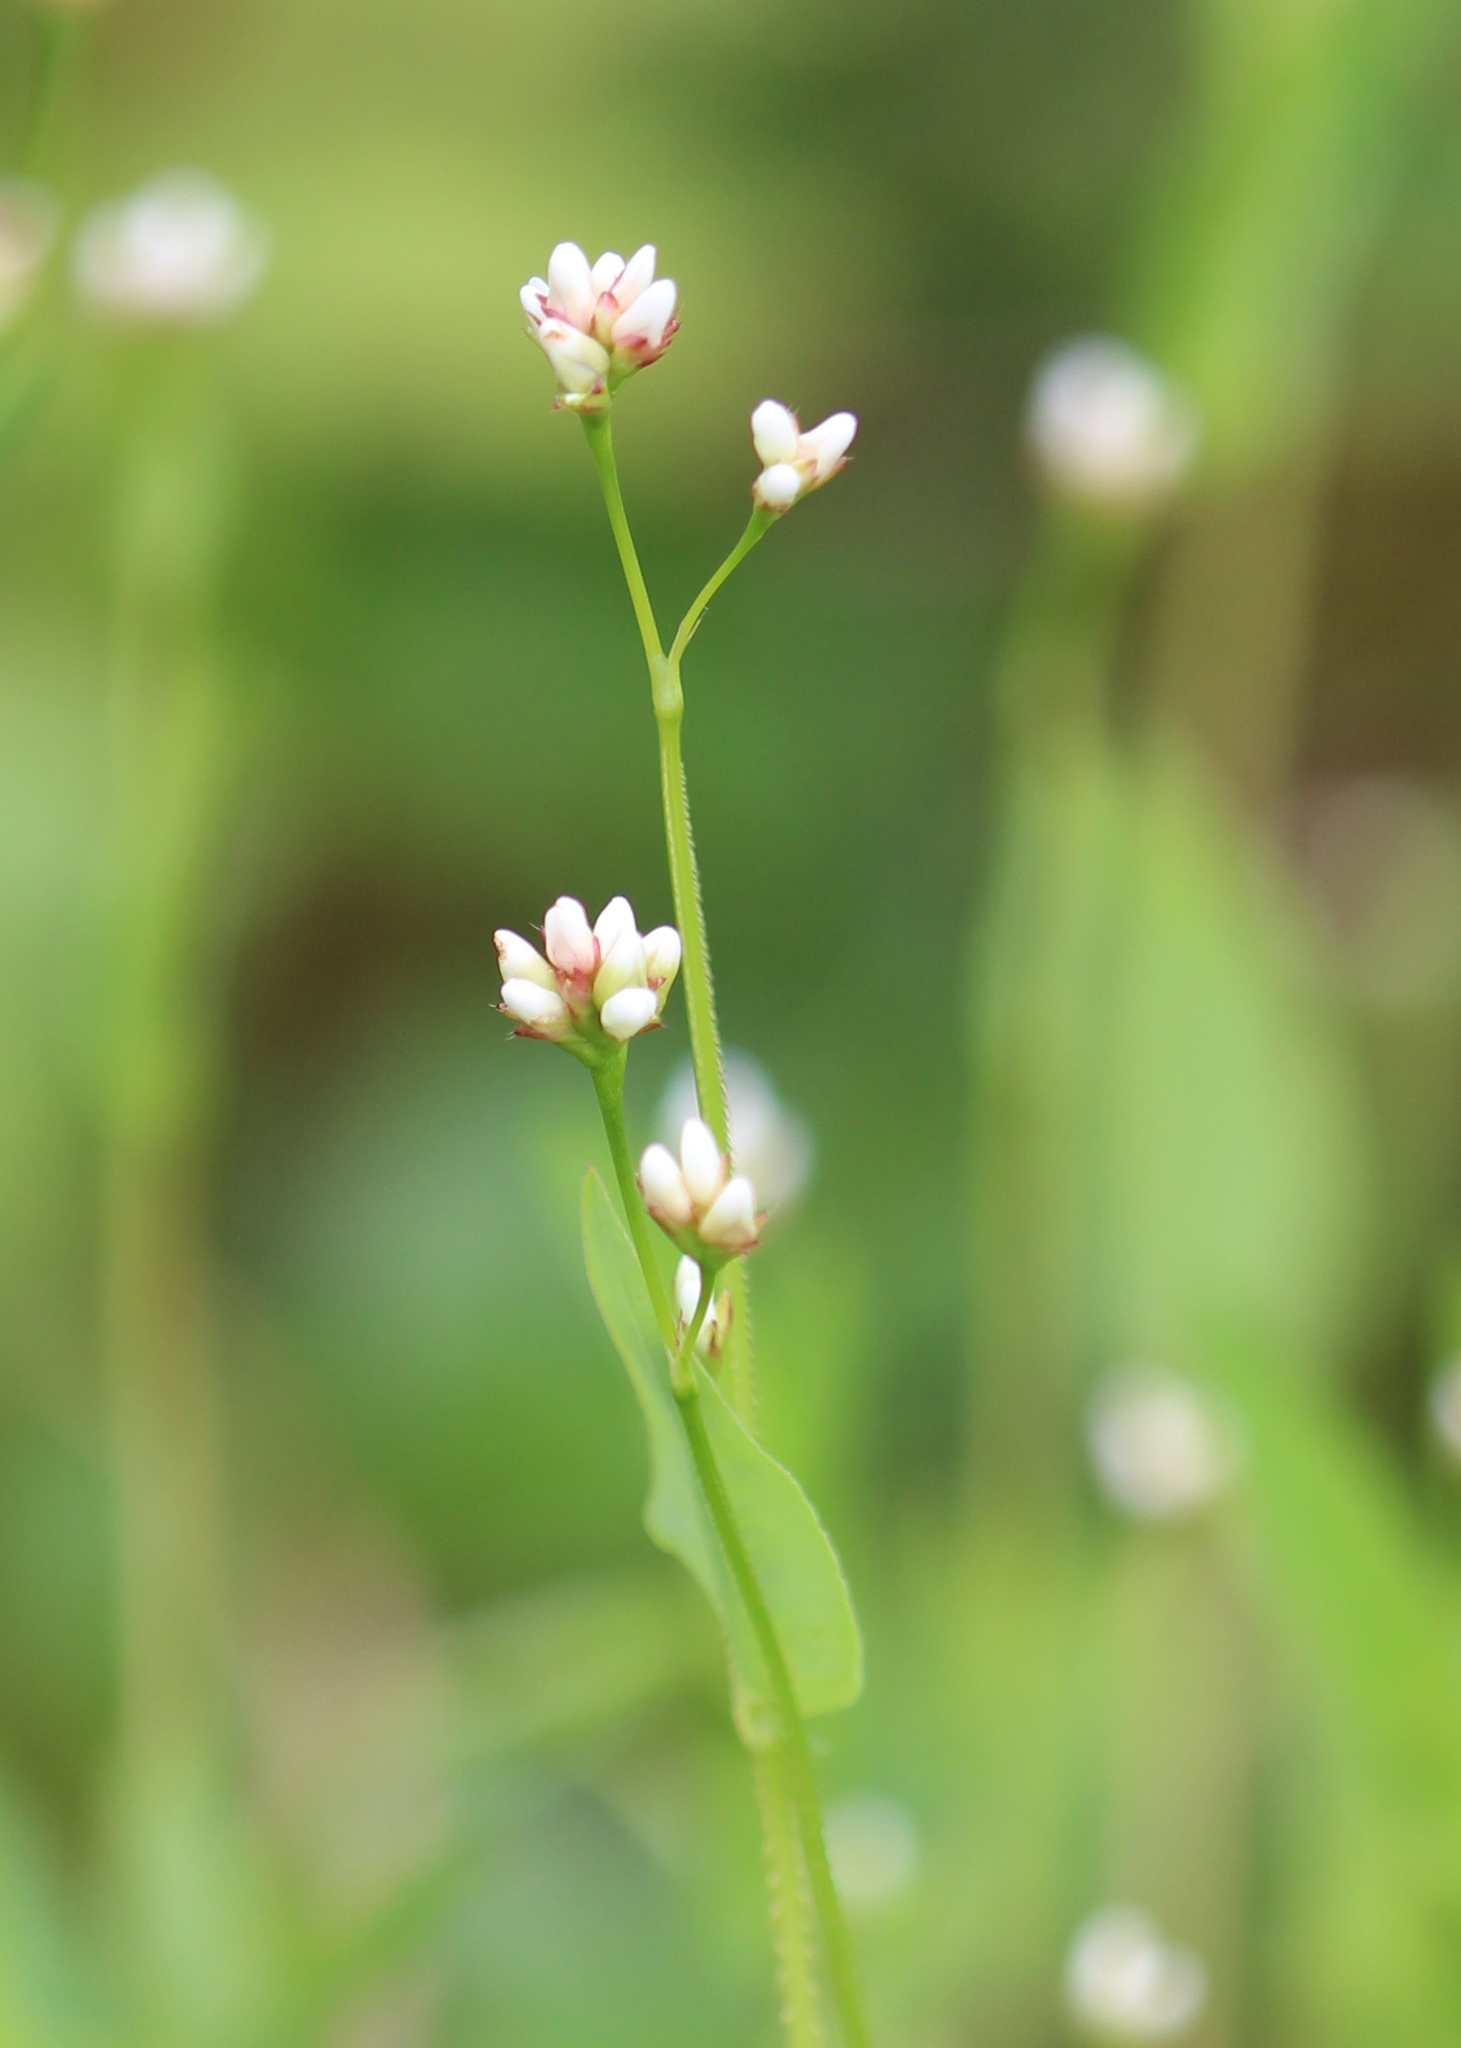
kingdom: Plantae
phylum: Tracheophyta
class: Magnoliopsida
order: Caryophyllales
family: Polygonaceae
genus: Persicaria
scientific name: Persicaria sagittata
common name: American tearthumb
